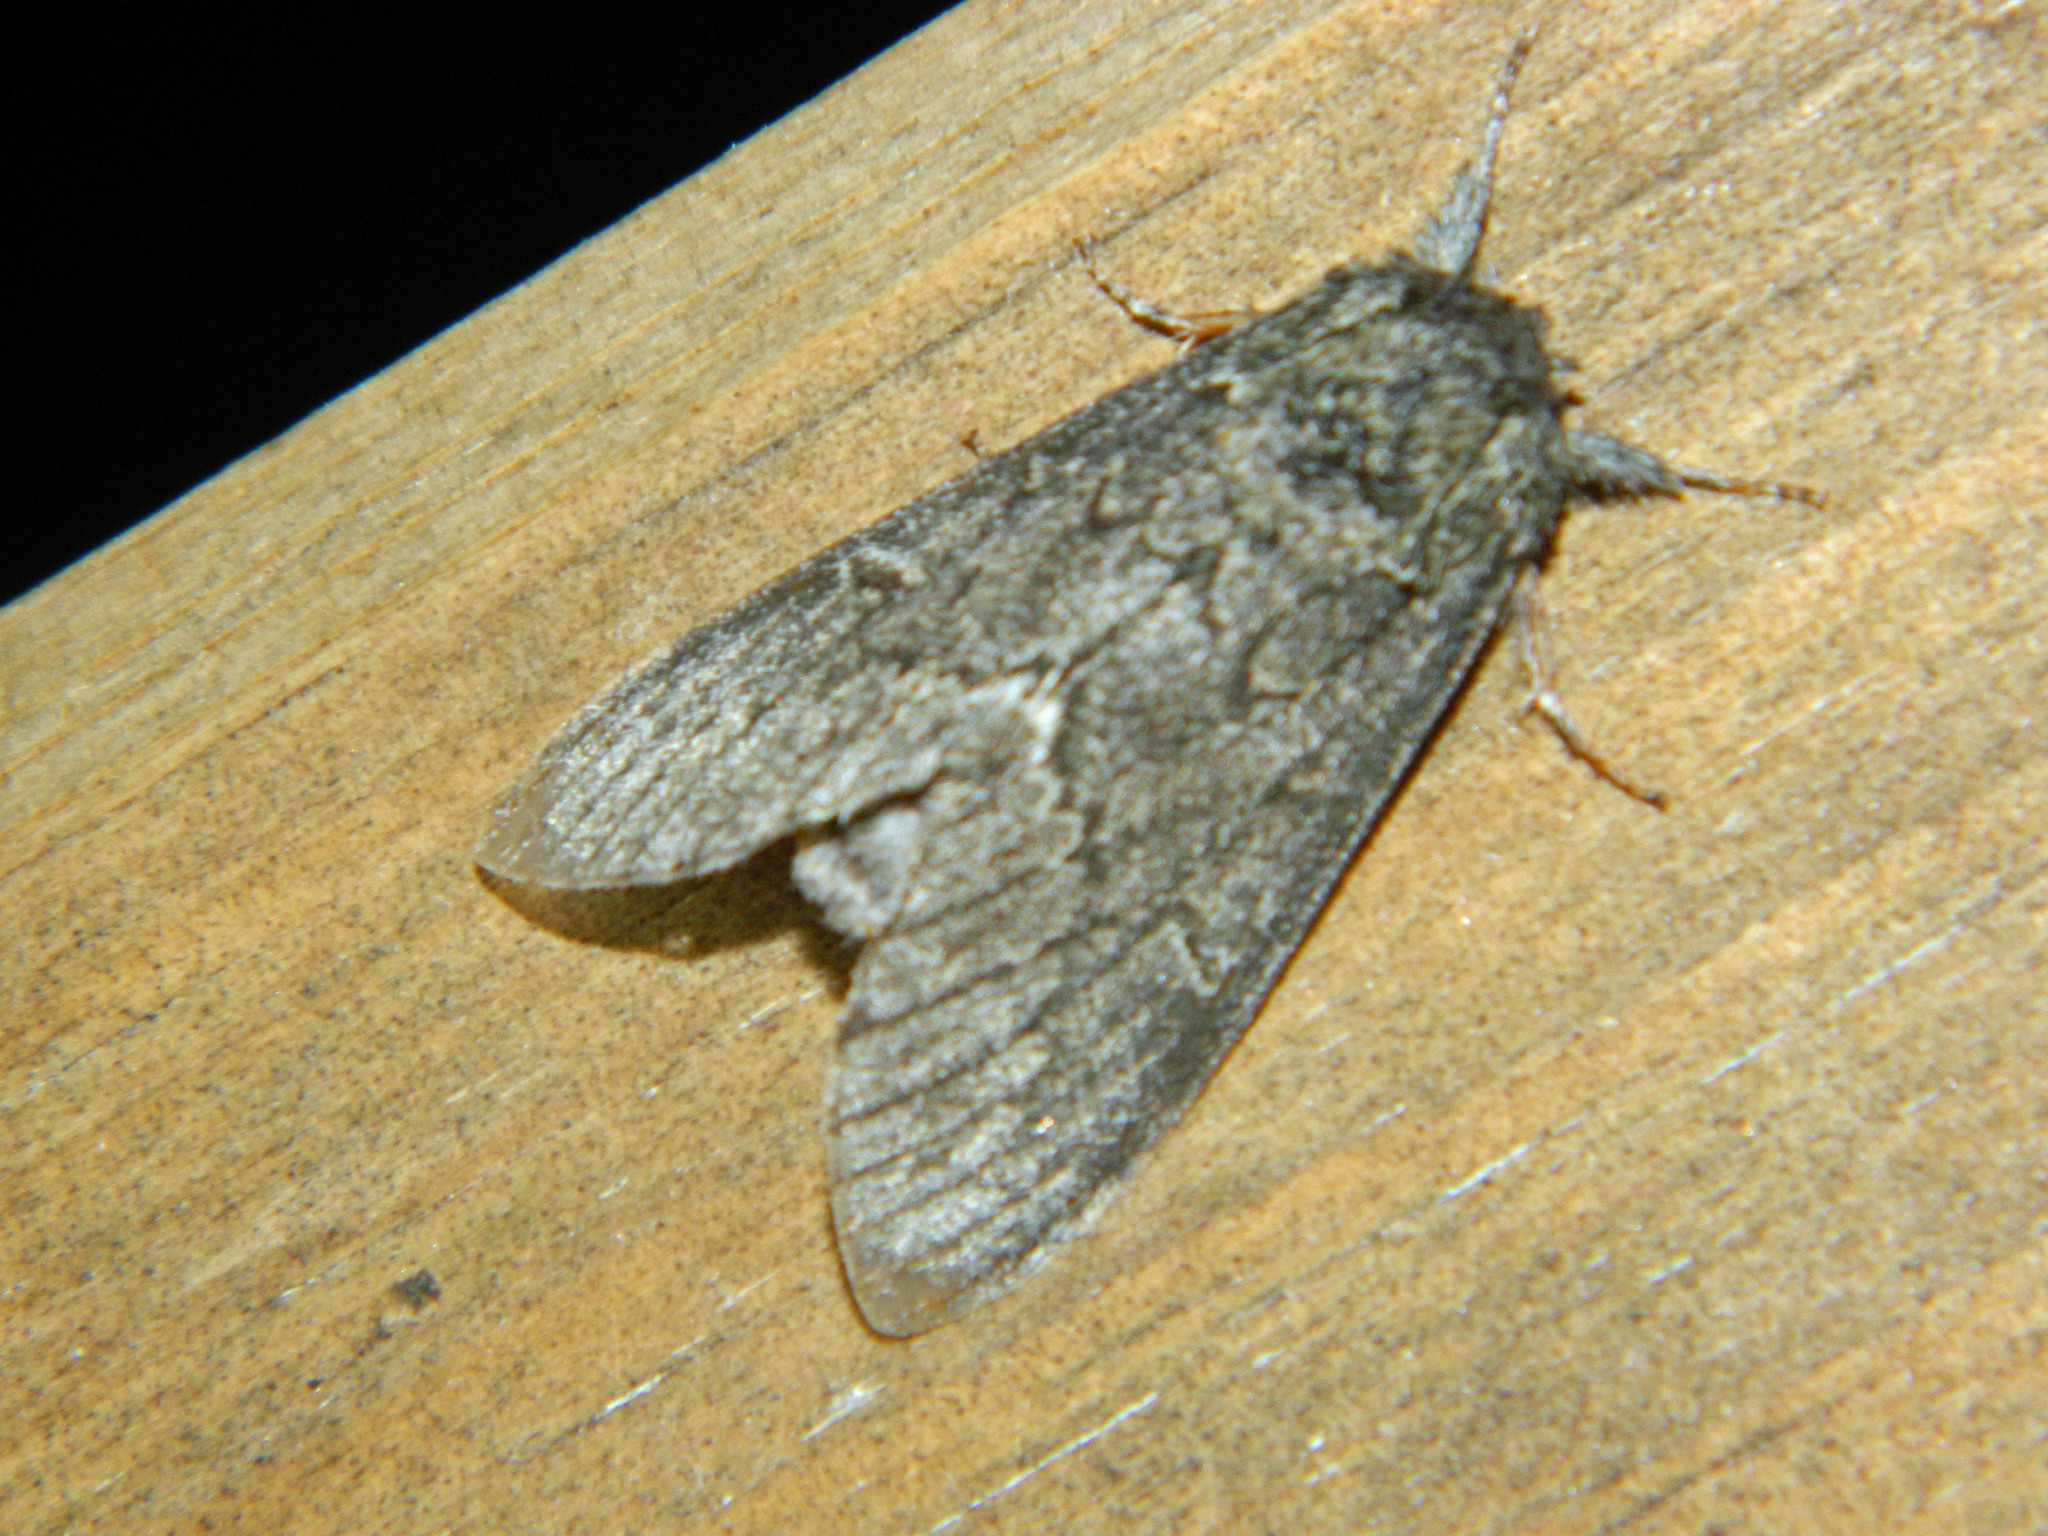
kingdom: Animalia
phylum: Arthropoda
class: Insecta
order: Lepidoptera
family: Notodontidae
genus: Notodonta
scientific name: Notodonta torva
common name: Large dark prominent
